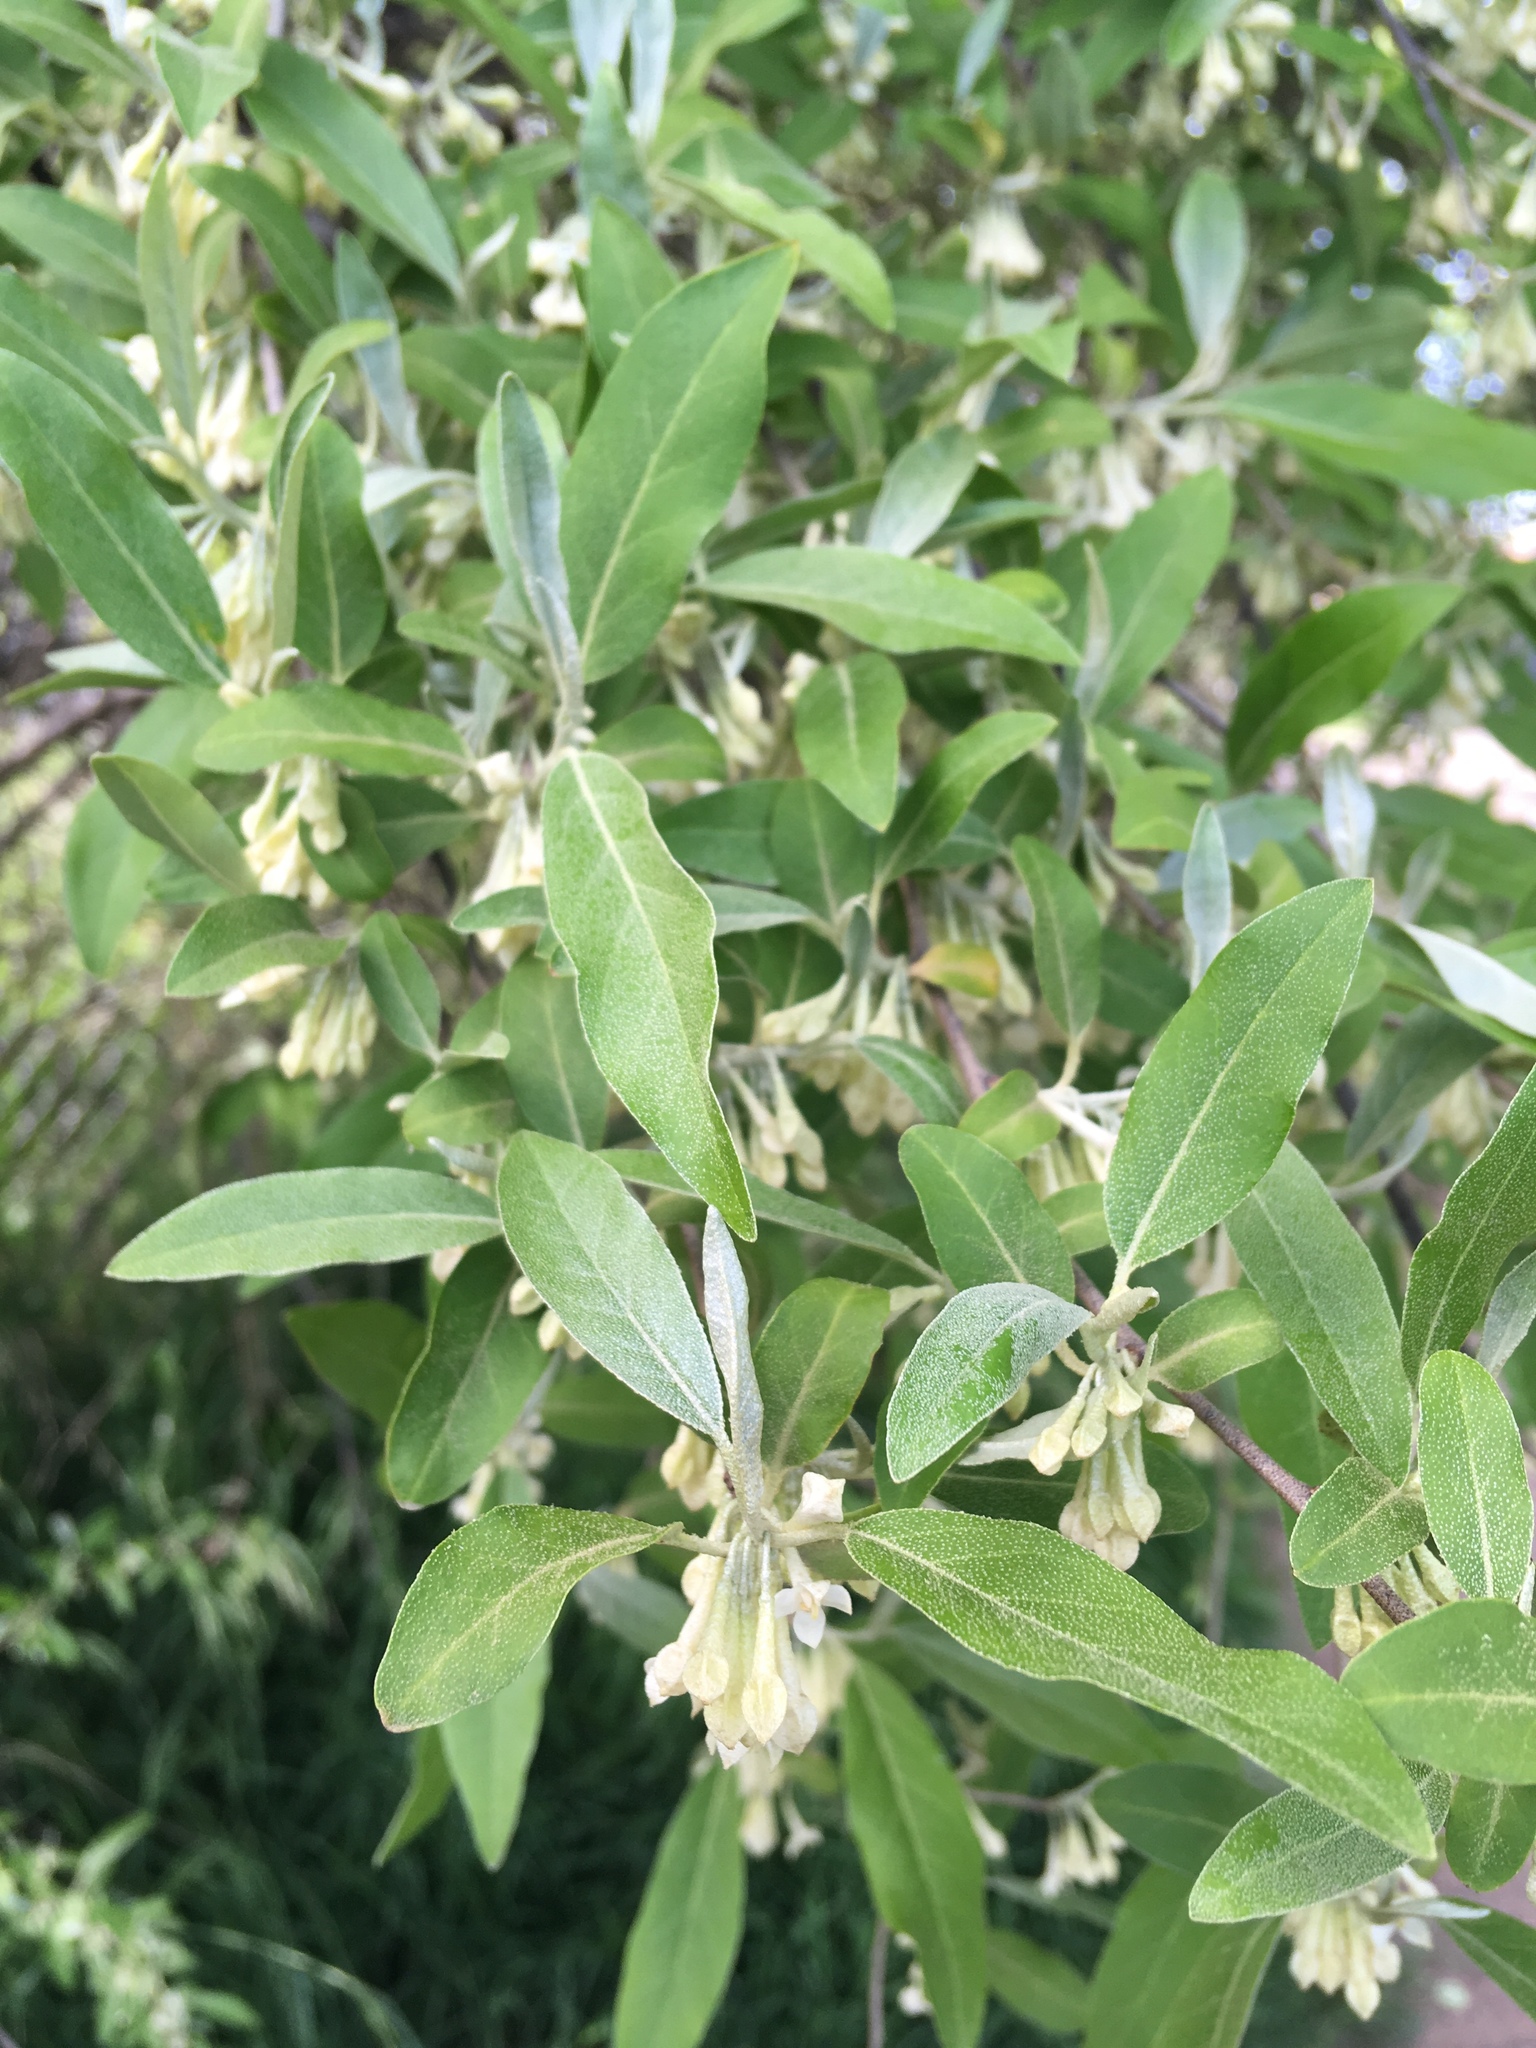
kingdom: Plantae
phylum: Tracheophyta
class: Magnoliopsida
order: Rosales
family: Elaeagnaceae
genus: Elaeagnus
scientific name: Elaeagnus umbellata
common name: Autumn olive
